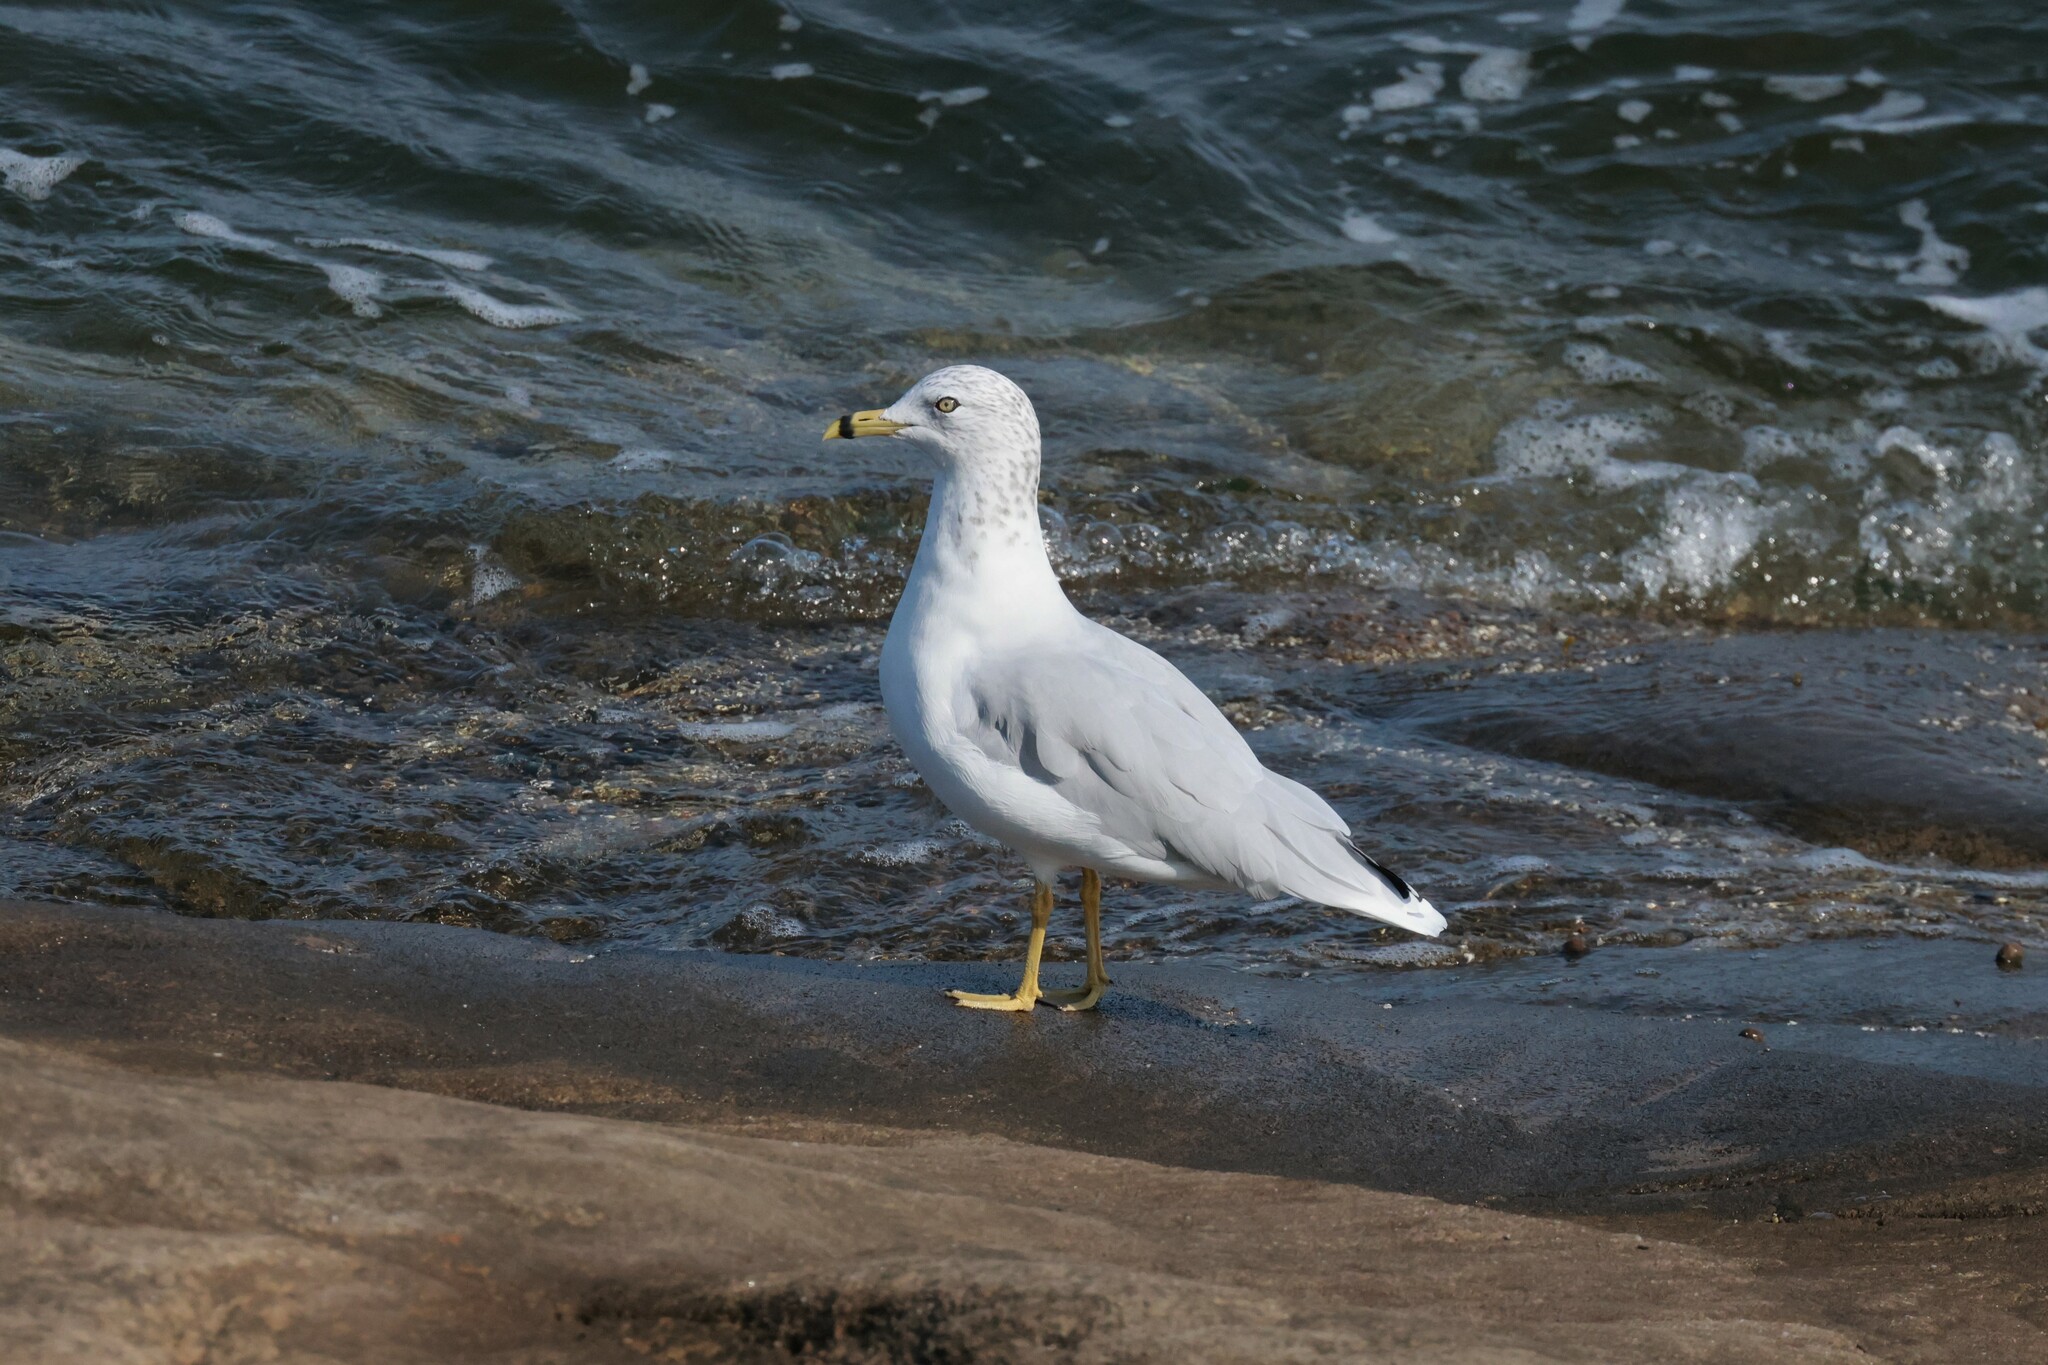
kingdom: Animalia
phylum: Chordata
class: Aves
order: Charadriiformes
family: Laridae
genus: Larus
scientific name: Larus delawarensis
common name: Ring-billed gull
